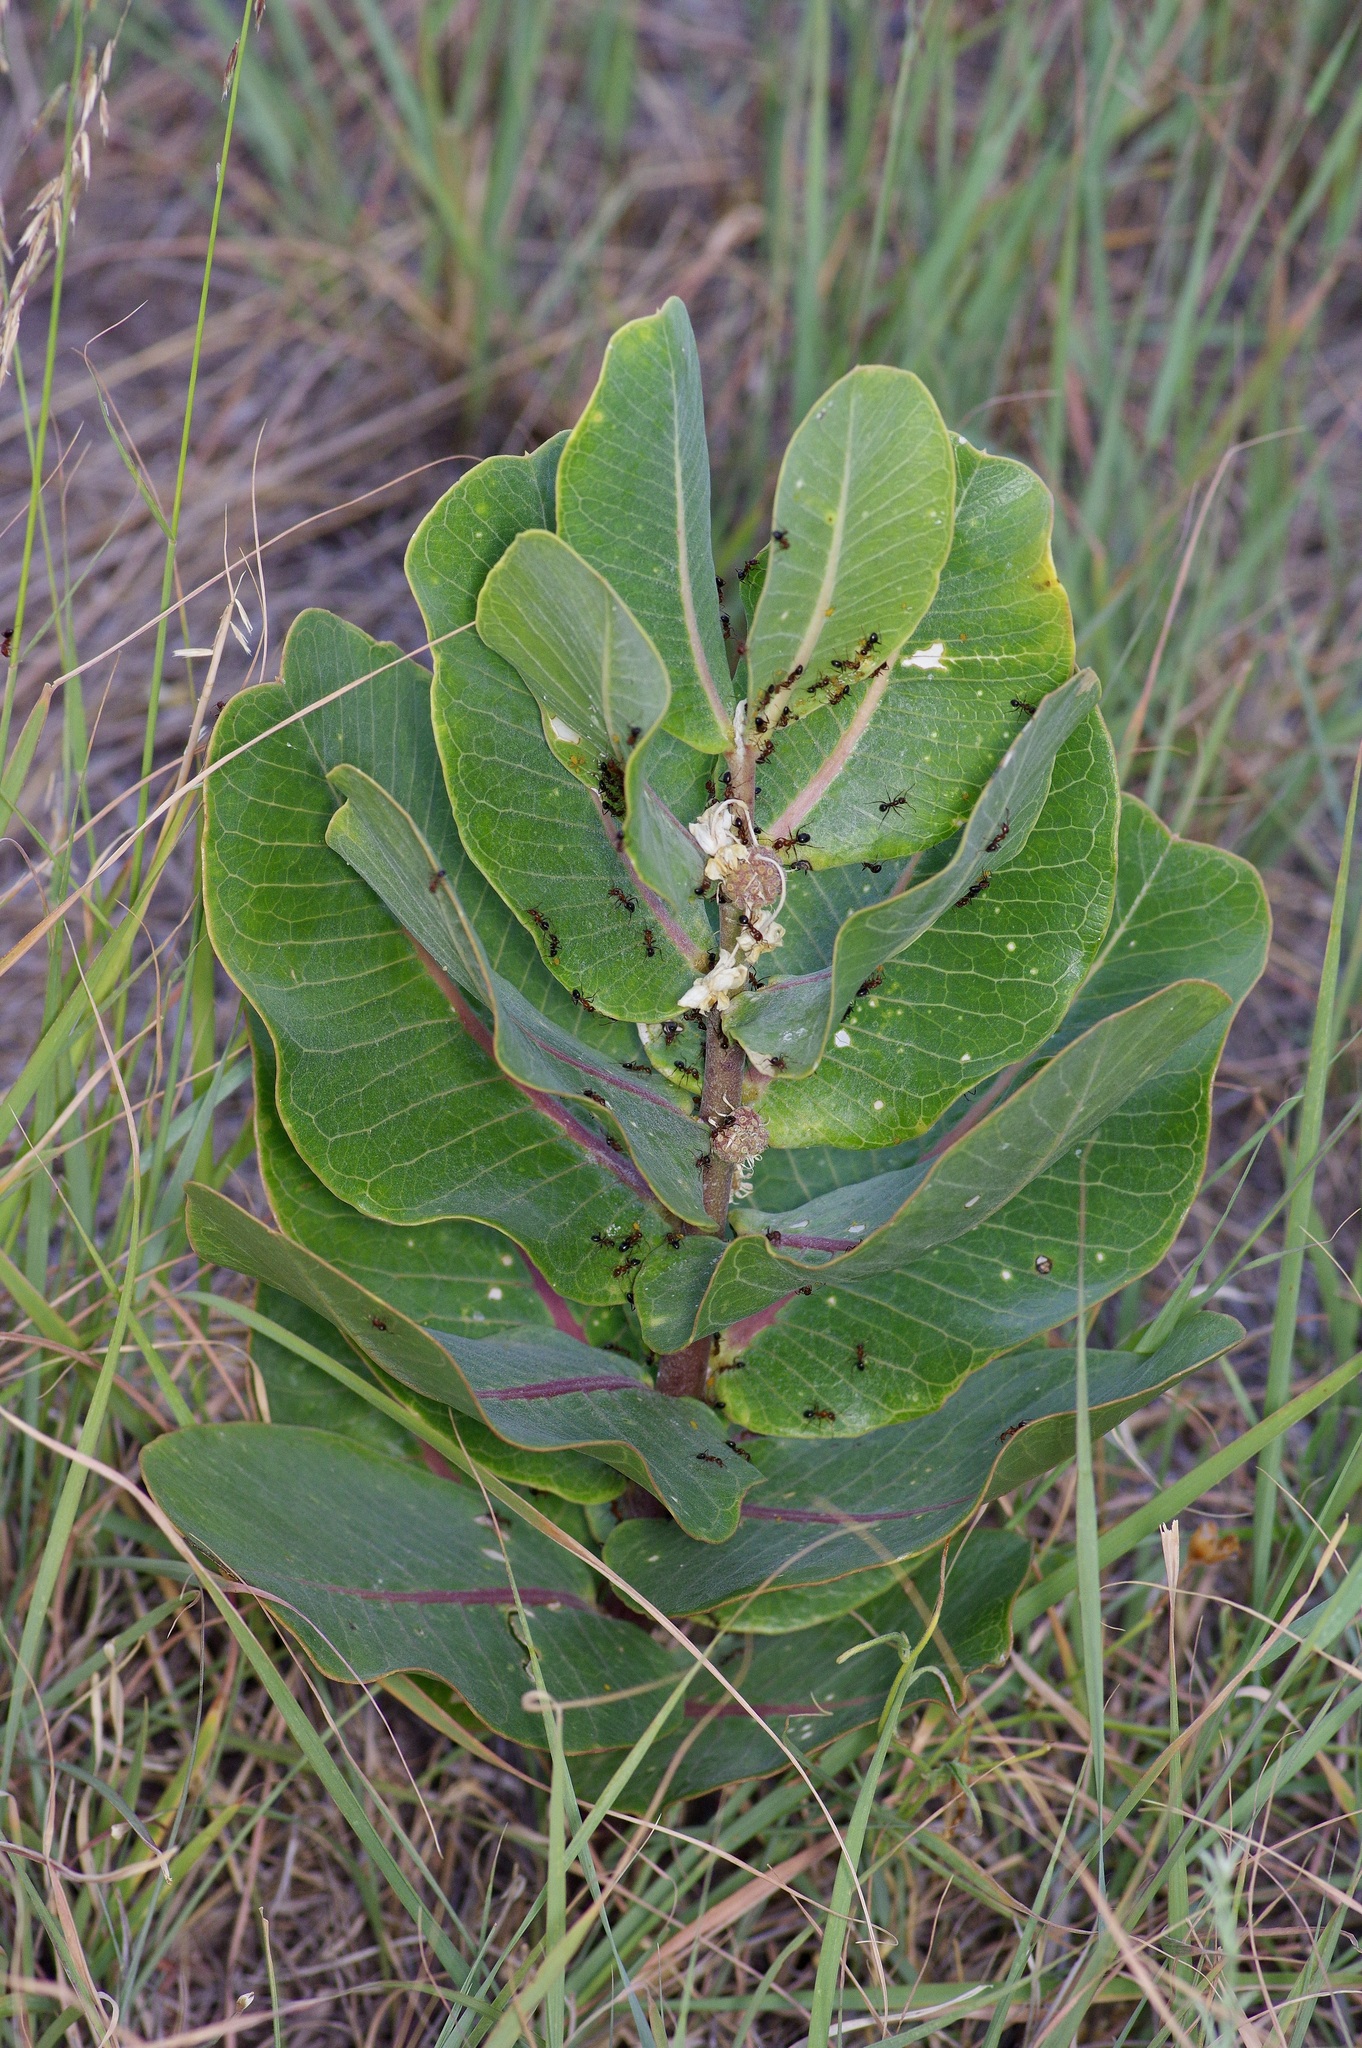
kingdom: Plantae
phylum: Tracheophyta
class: Magnoliopsida
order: Gentianales
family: Apocynaceae
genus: Asclepias
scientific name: Asclepias latifolia
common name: Broadleaf milkweed
